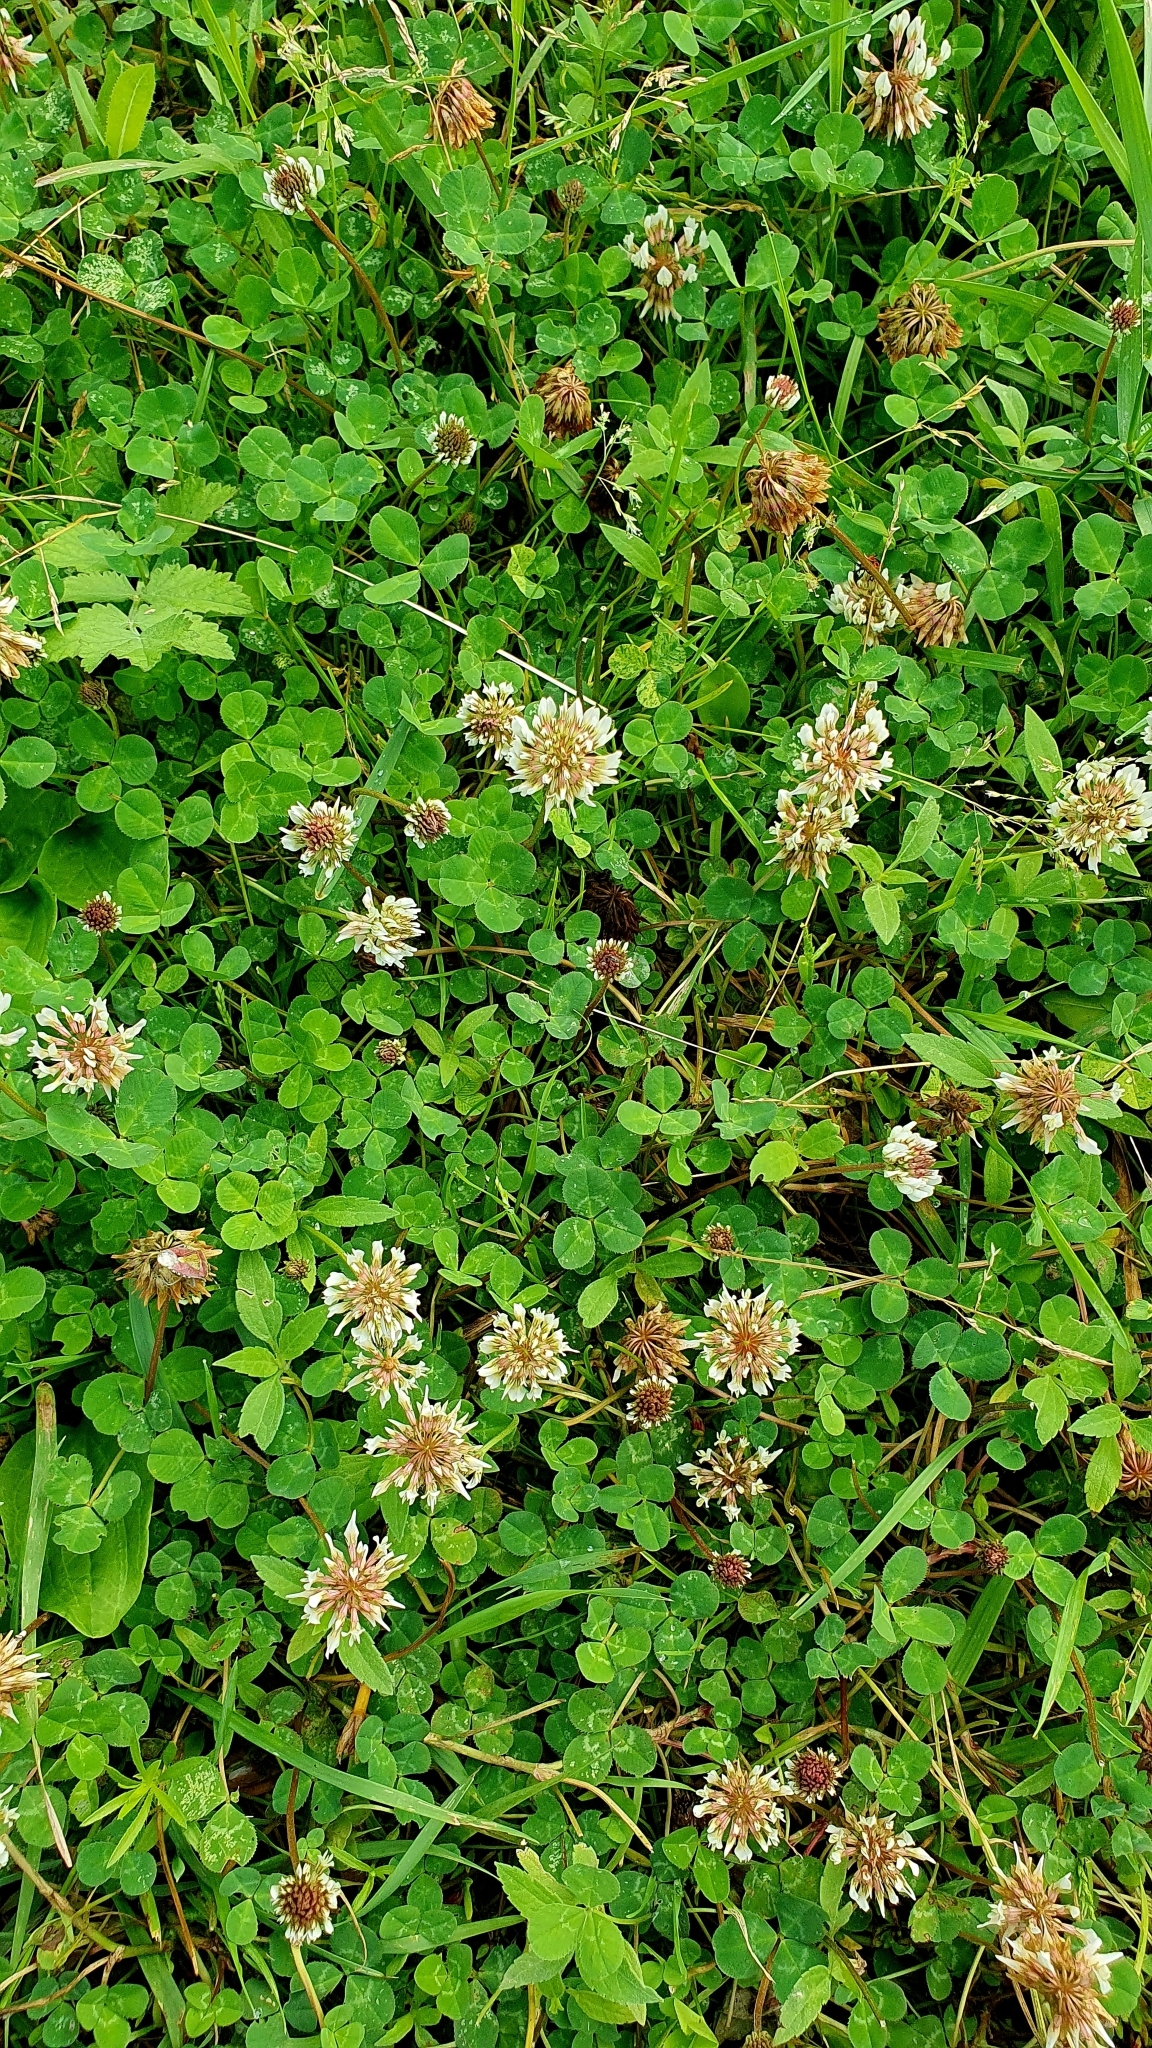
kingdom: Plantae
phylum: Tracheophyta
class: Magnoliopsida
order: Fabales
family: Fabaceae
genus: Trifolium
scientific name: Trifolium repens
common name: White clover
